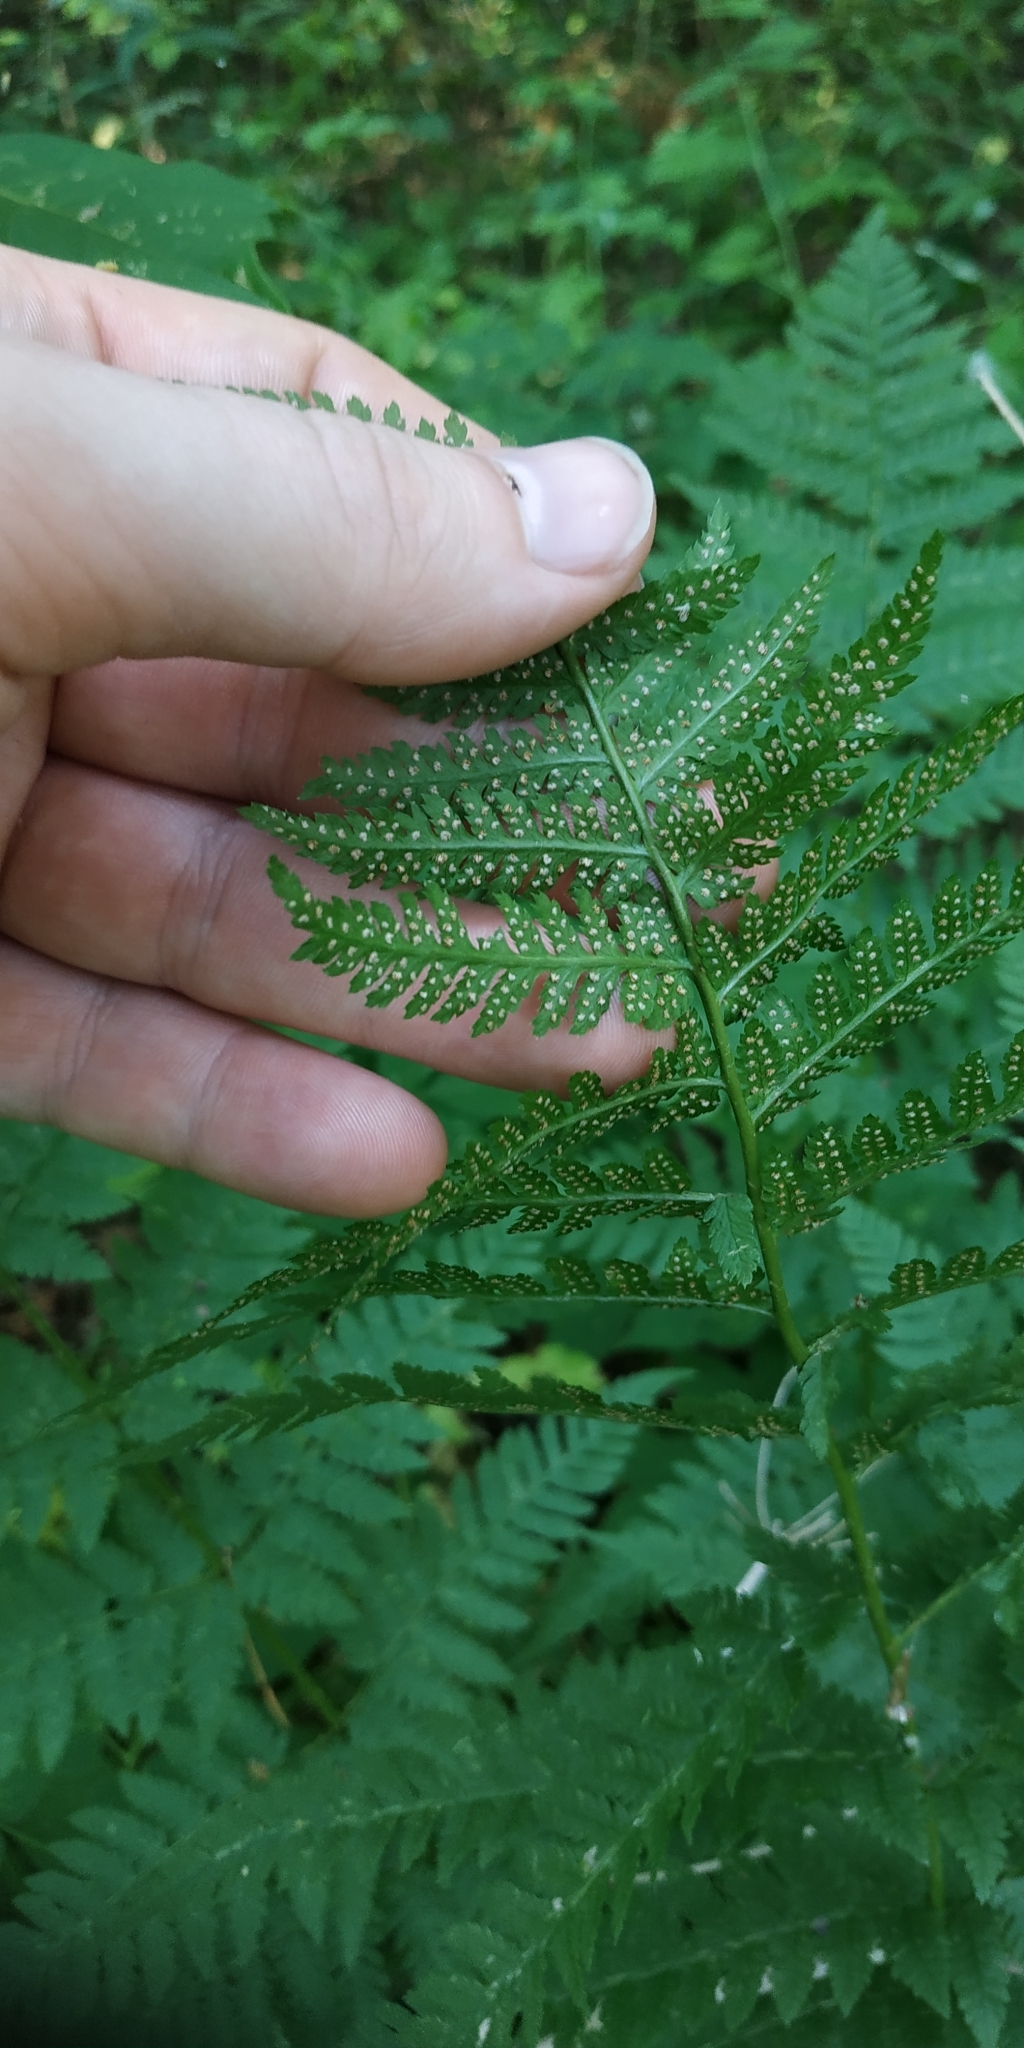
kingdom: Plantae
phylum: Tracheophyta
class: Polypodiopsida
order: Polypodiales
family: Dryopteridaceae
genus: Dryopteris
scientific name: Dryopteris carthusiana
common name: Narrow buckler-fern
